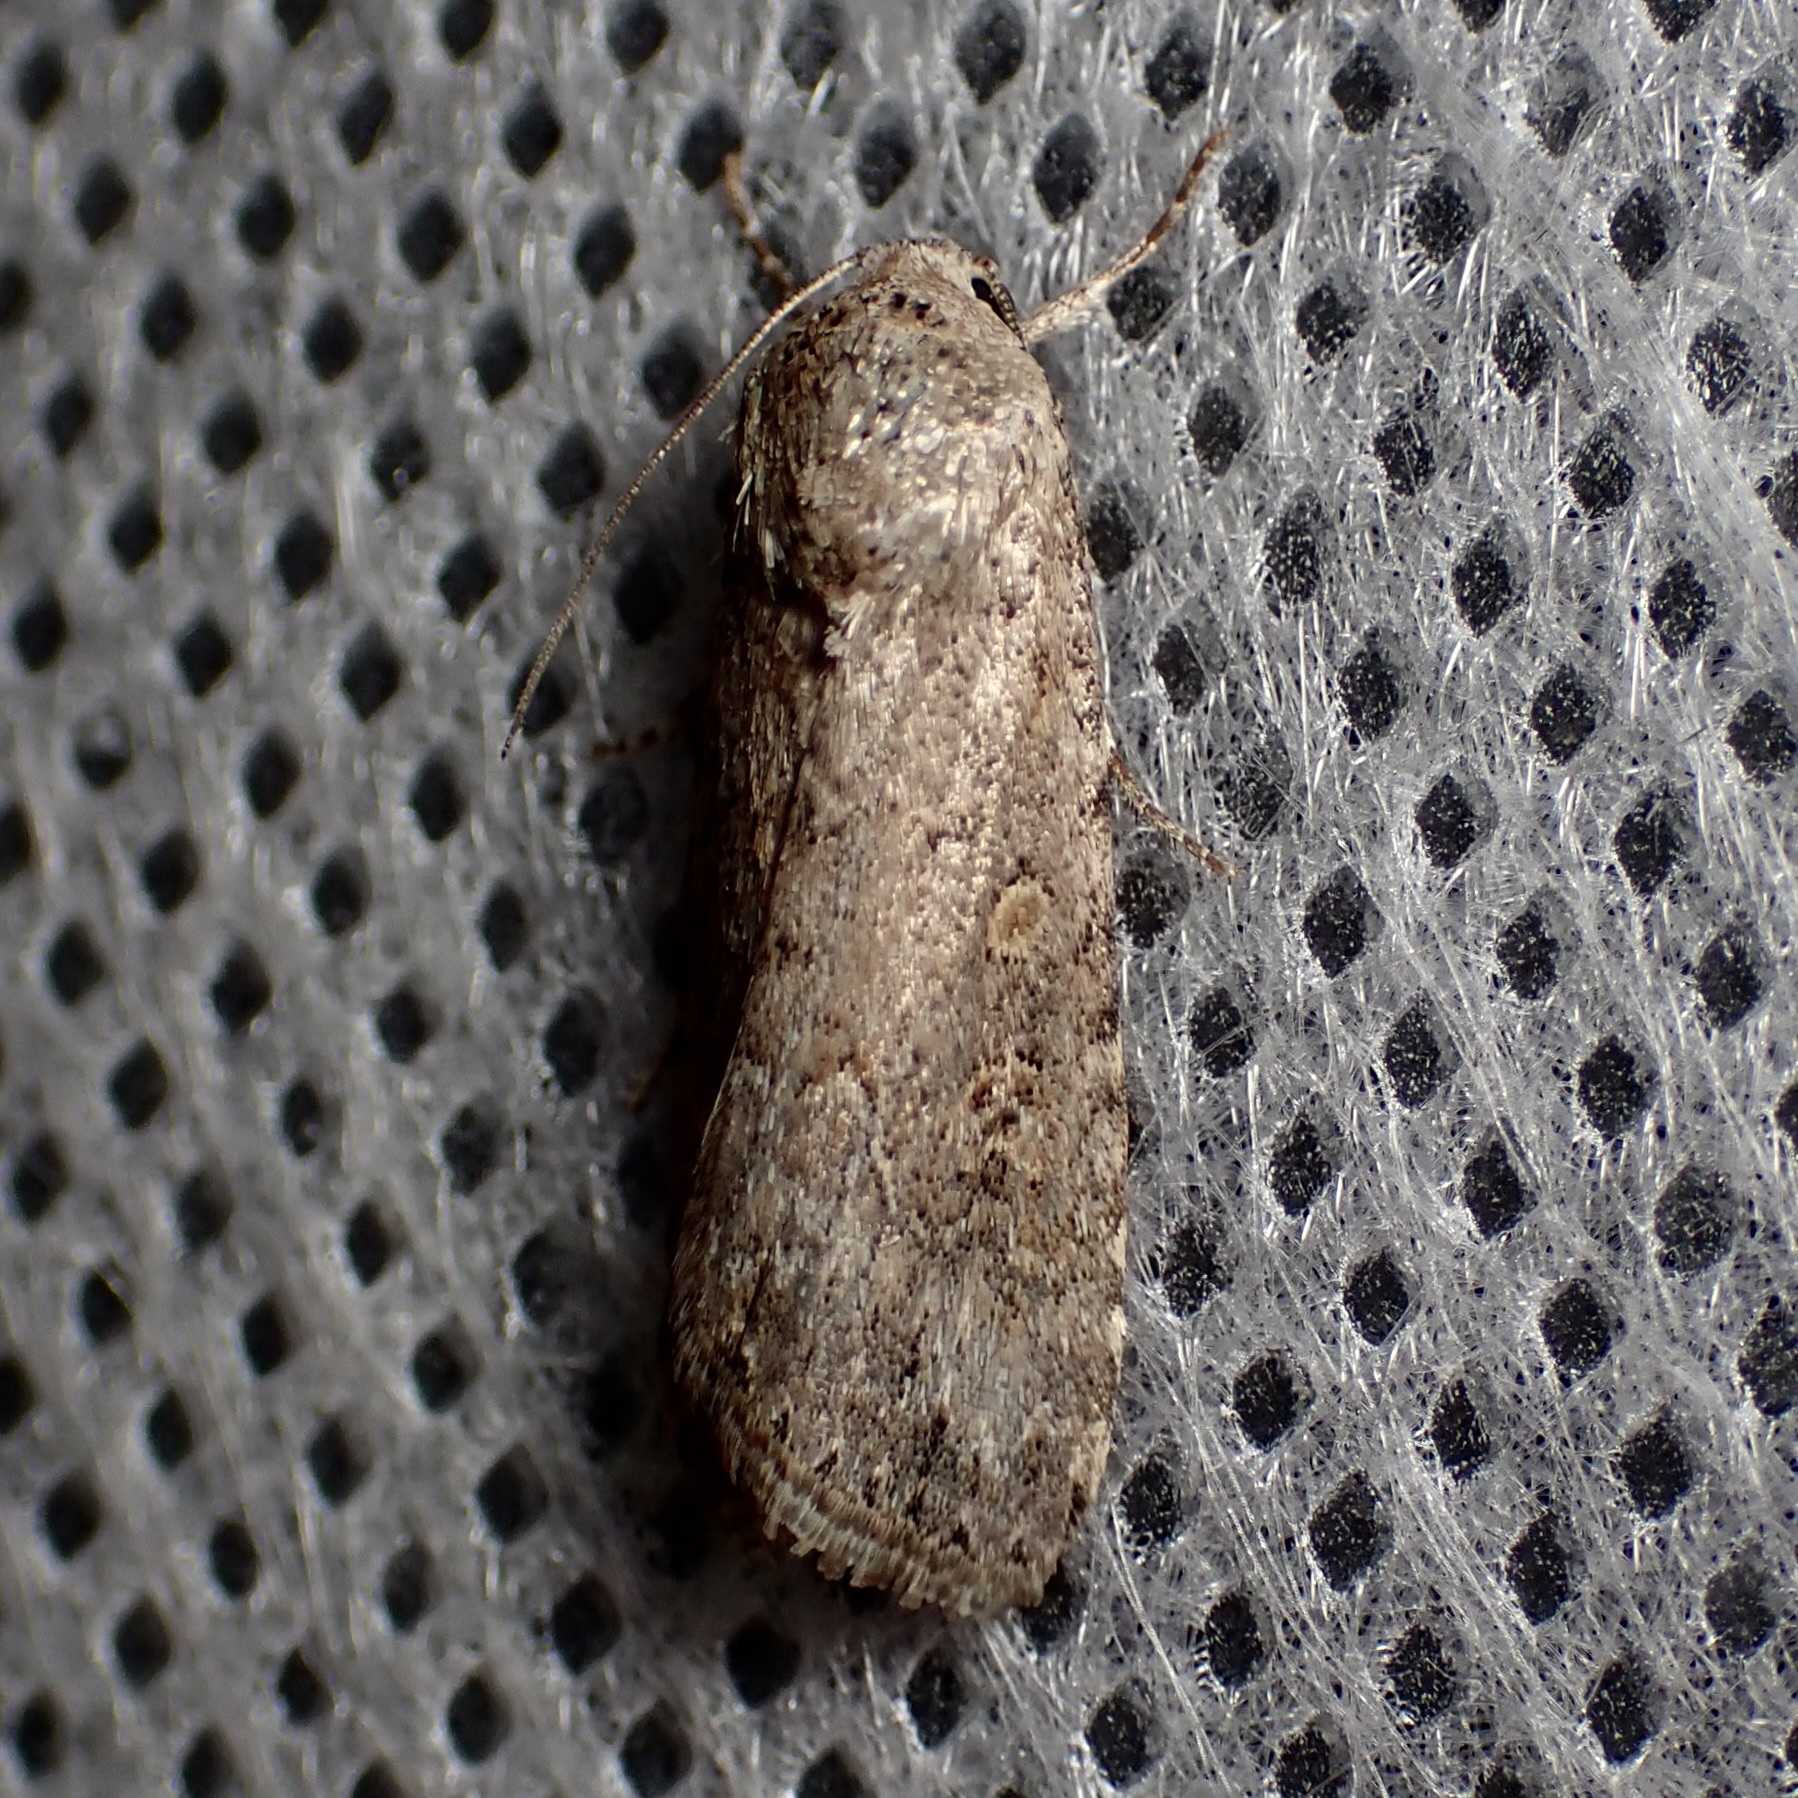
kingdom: Animalia
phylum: Arthropoda
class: Insecta
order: Lepidoptera
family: Noctuidae
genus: Spodoptera
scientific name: Spodoptera exigua
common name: Beet armyworm
